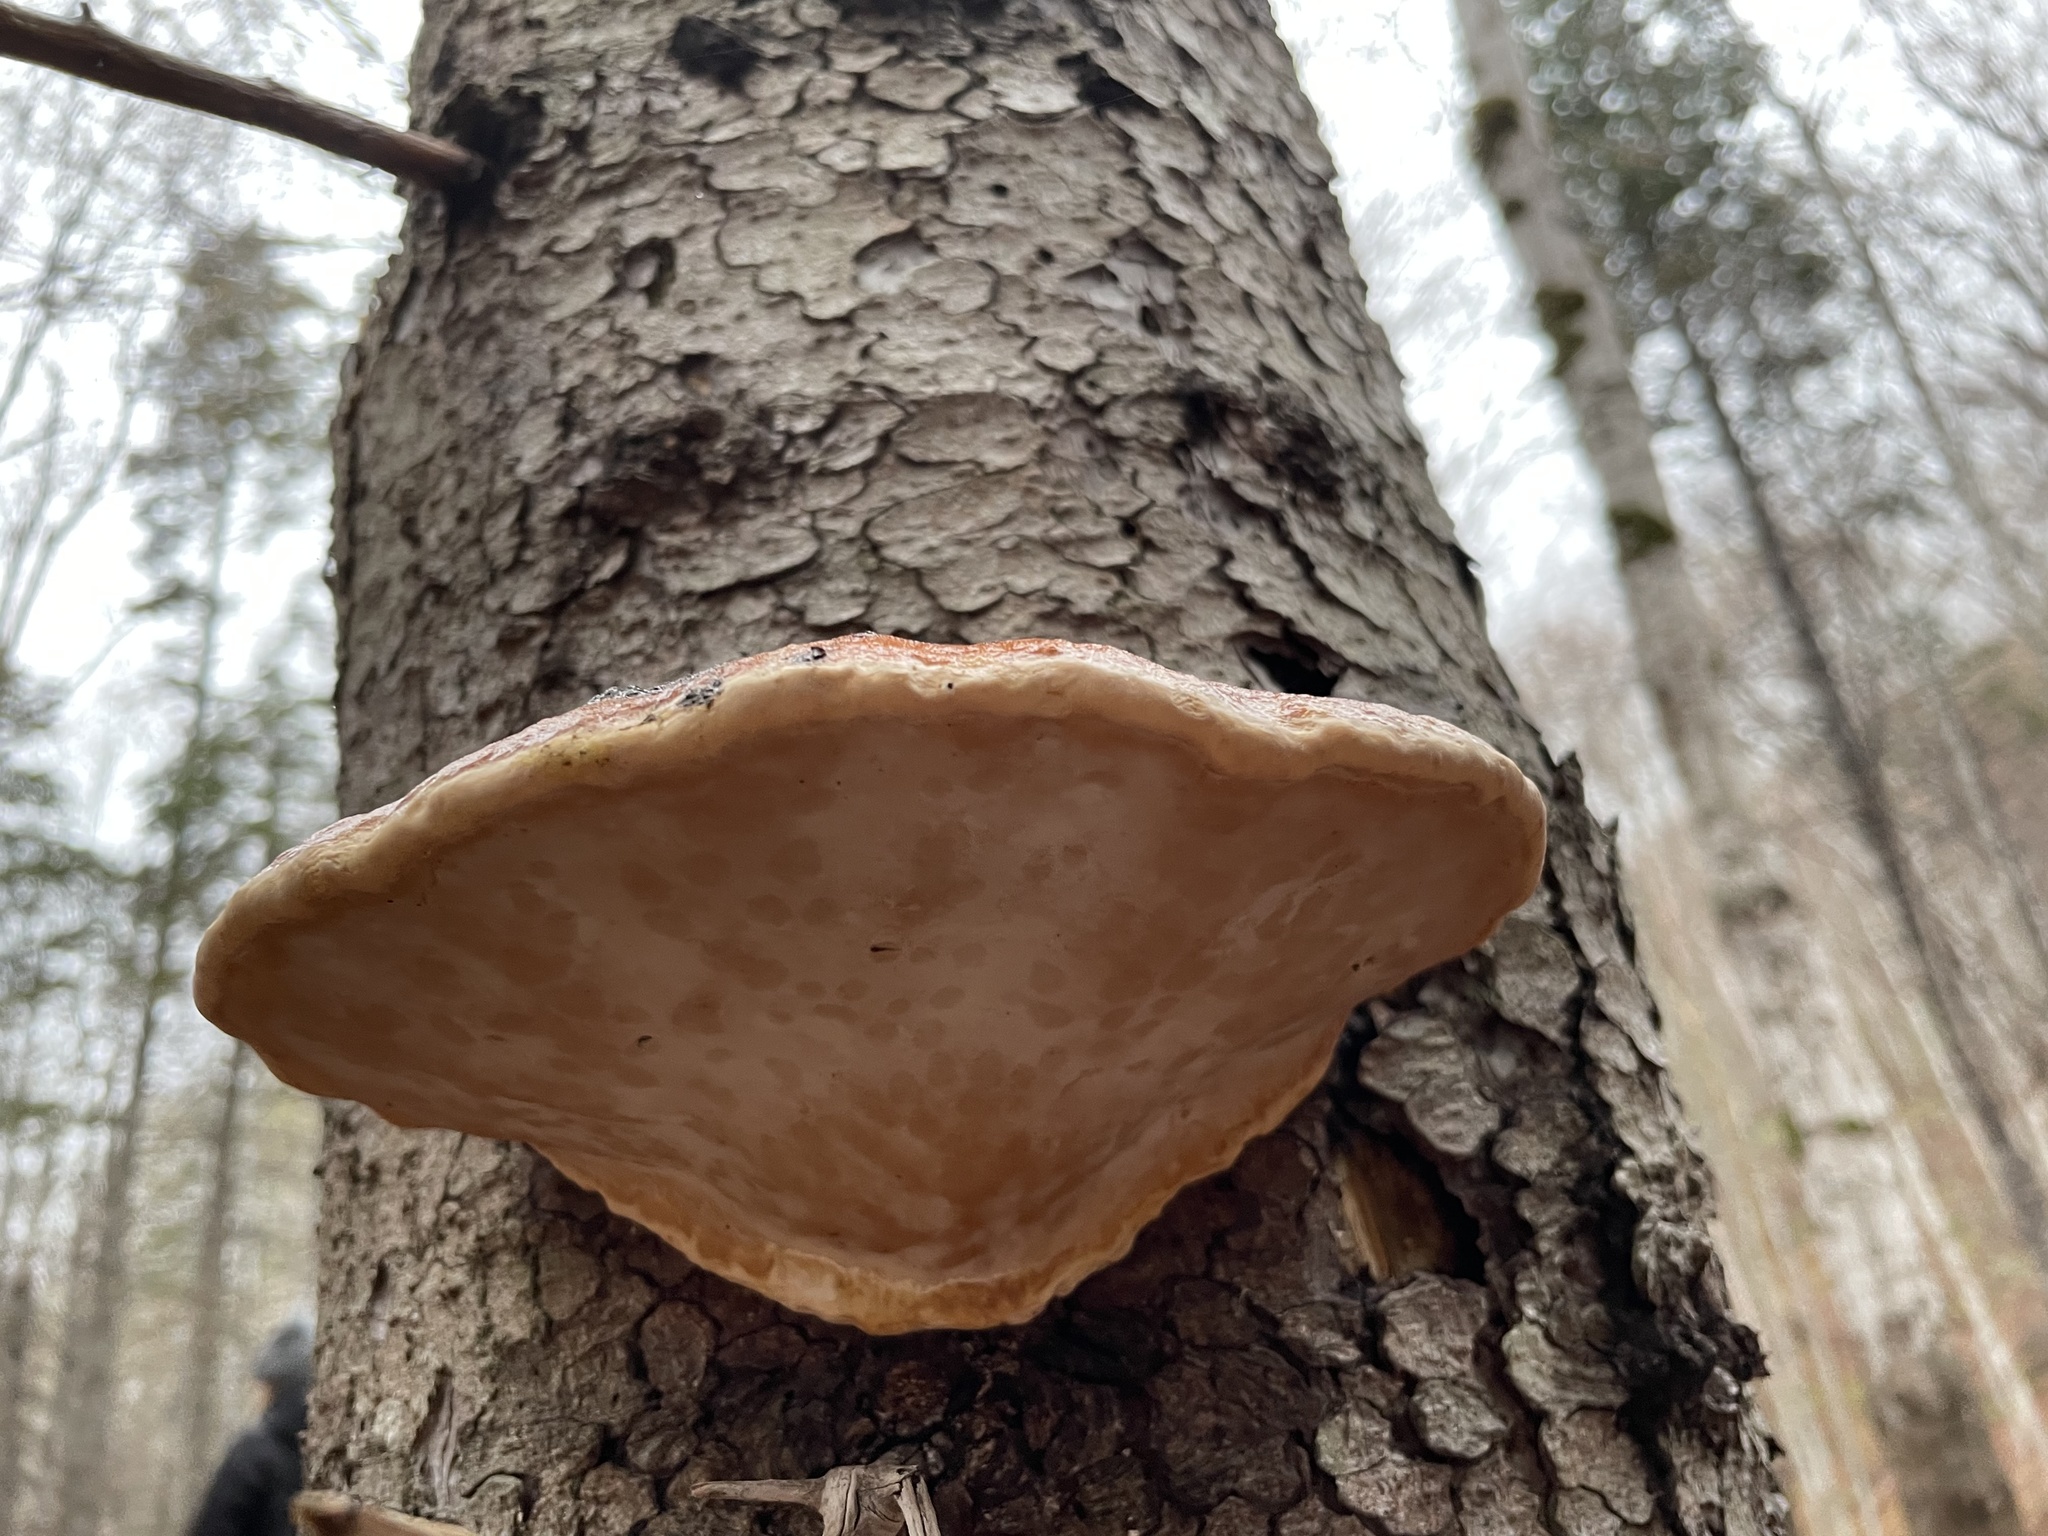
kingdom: Fungi
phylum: Basidiomycota
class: Agaricomycetes
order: Polyporales
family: Fomitopsidaceae
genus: Fomitopsis
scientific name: Fomitopsis mounceae
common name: Northern red belt
